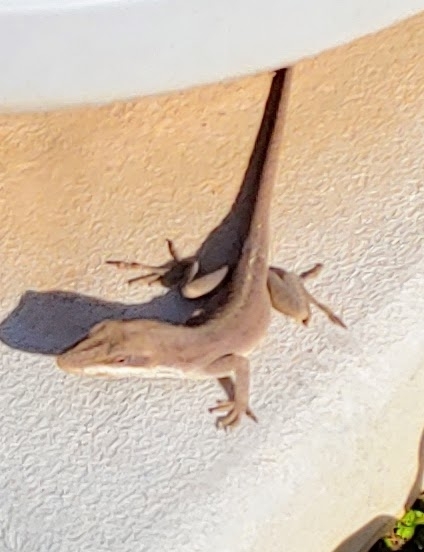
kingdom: Animalia
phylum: Chordata
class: Squamata
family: Dactyloidae
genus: Anolis
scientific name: Anolis carolinensis
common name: Green anole
